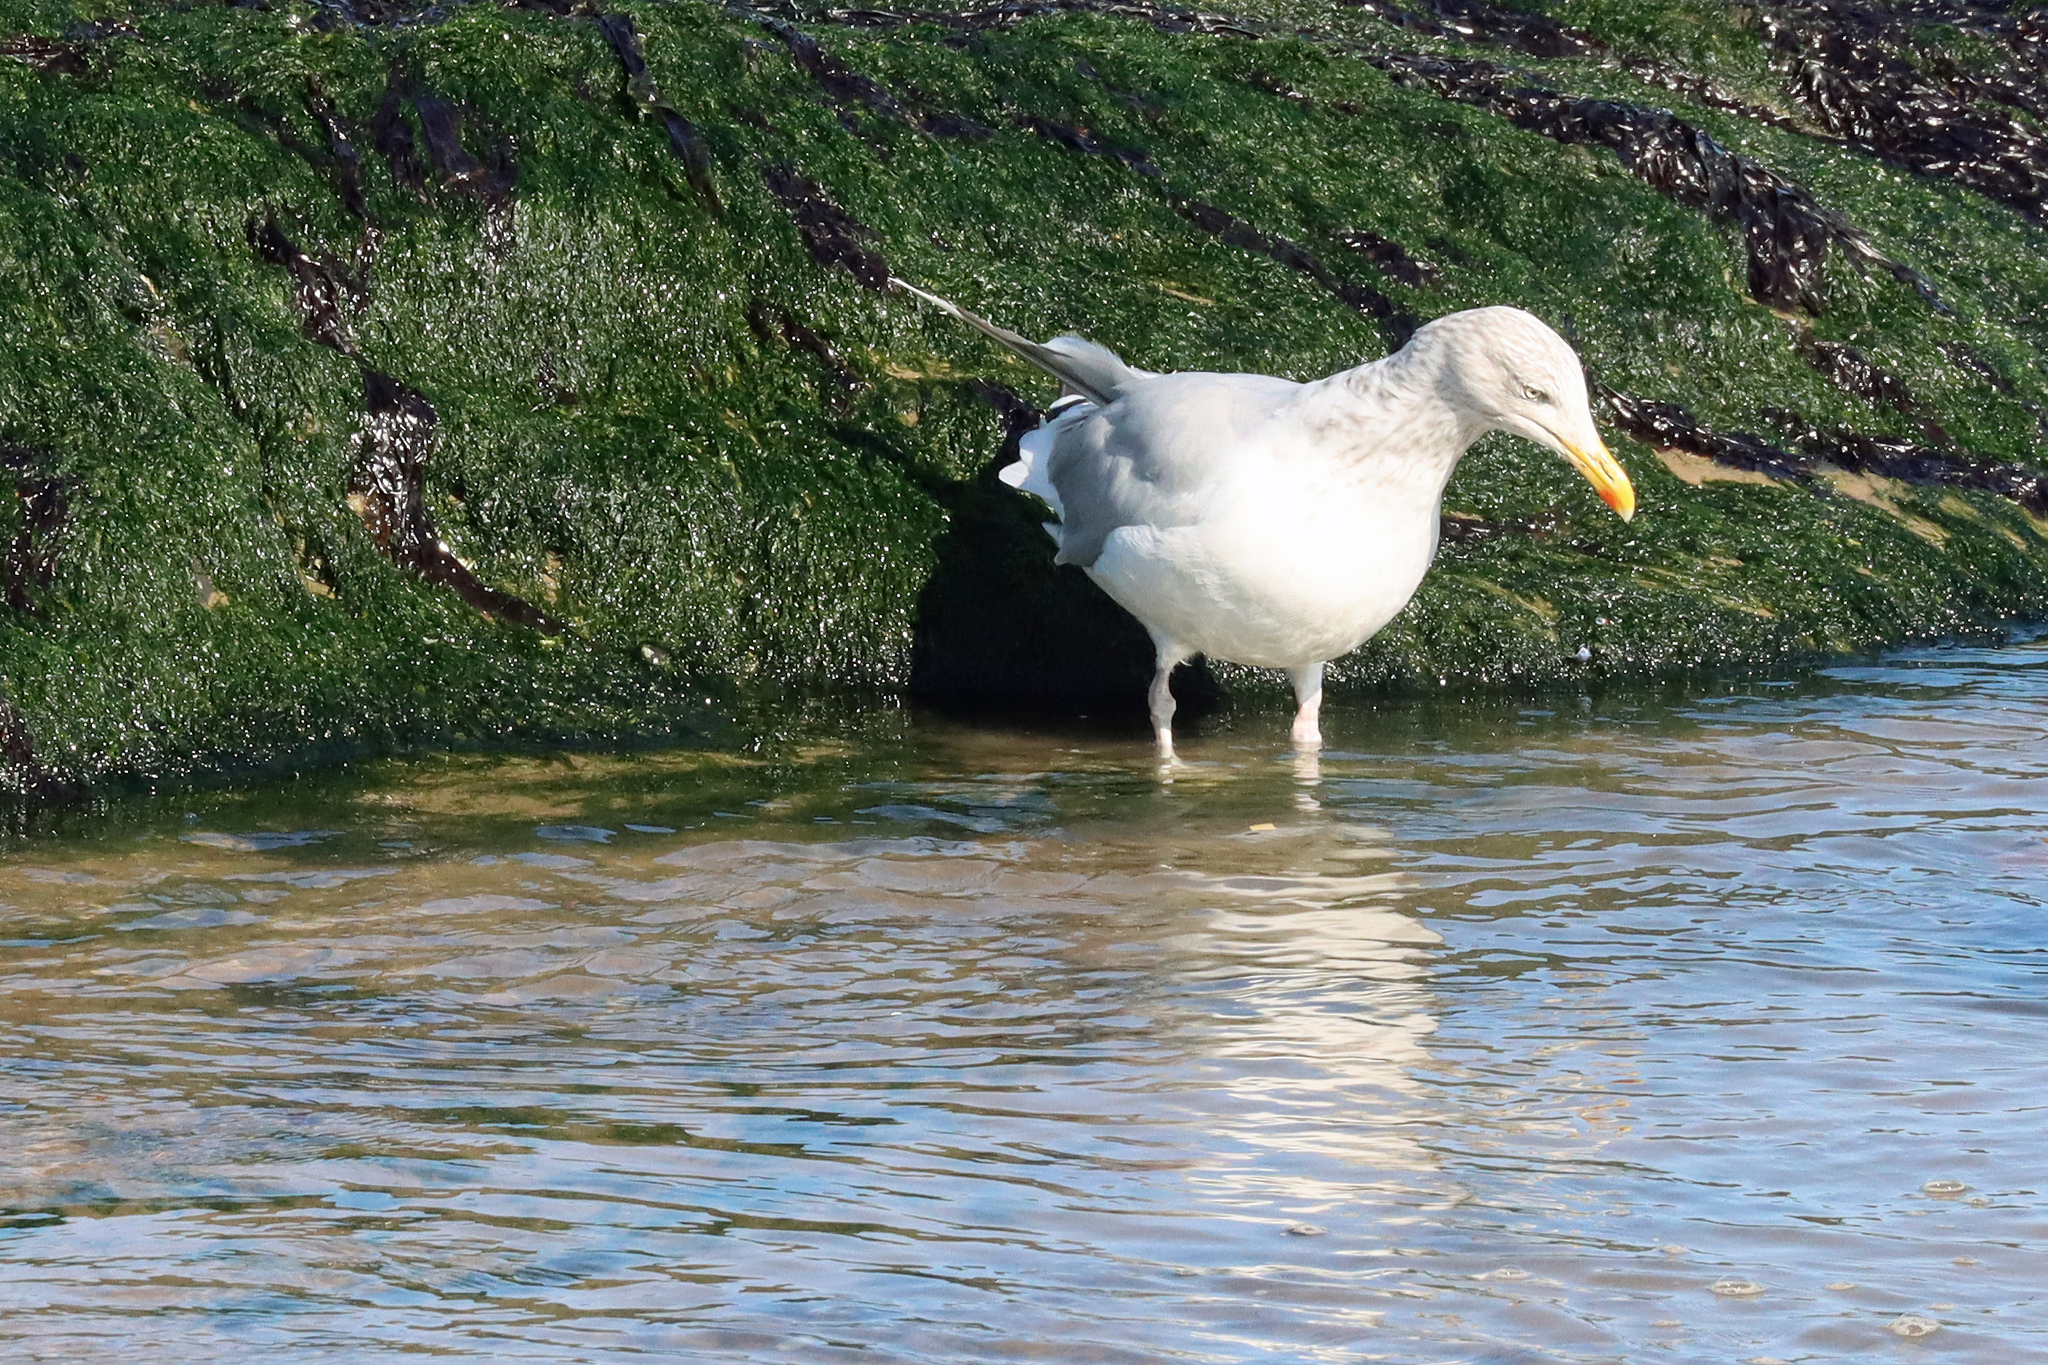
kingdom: Animalia
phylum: Chordata
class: Aves
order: Charadriiformes
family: Laridae
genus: Larus
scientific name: Larus argentatus
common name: Herring gull
